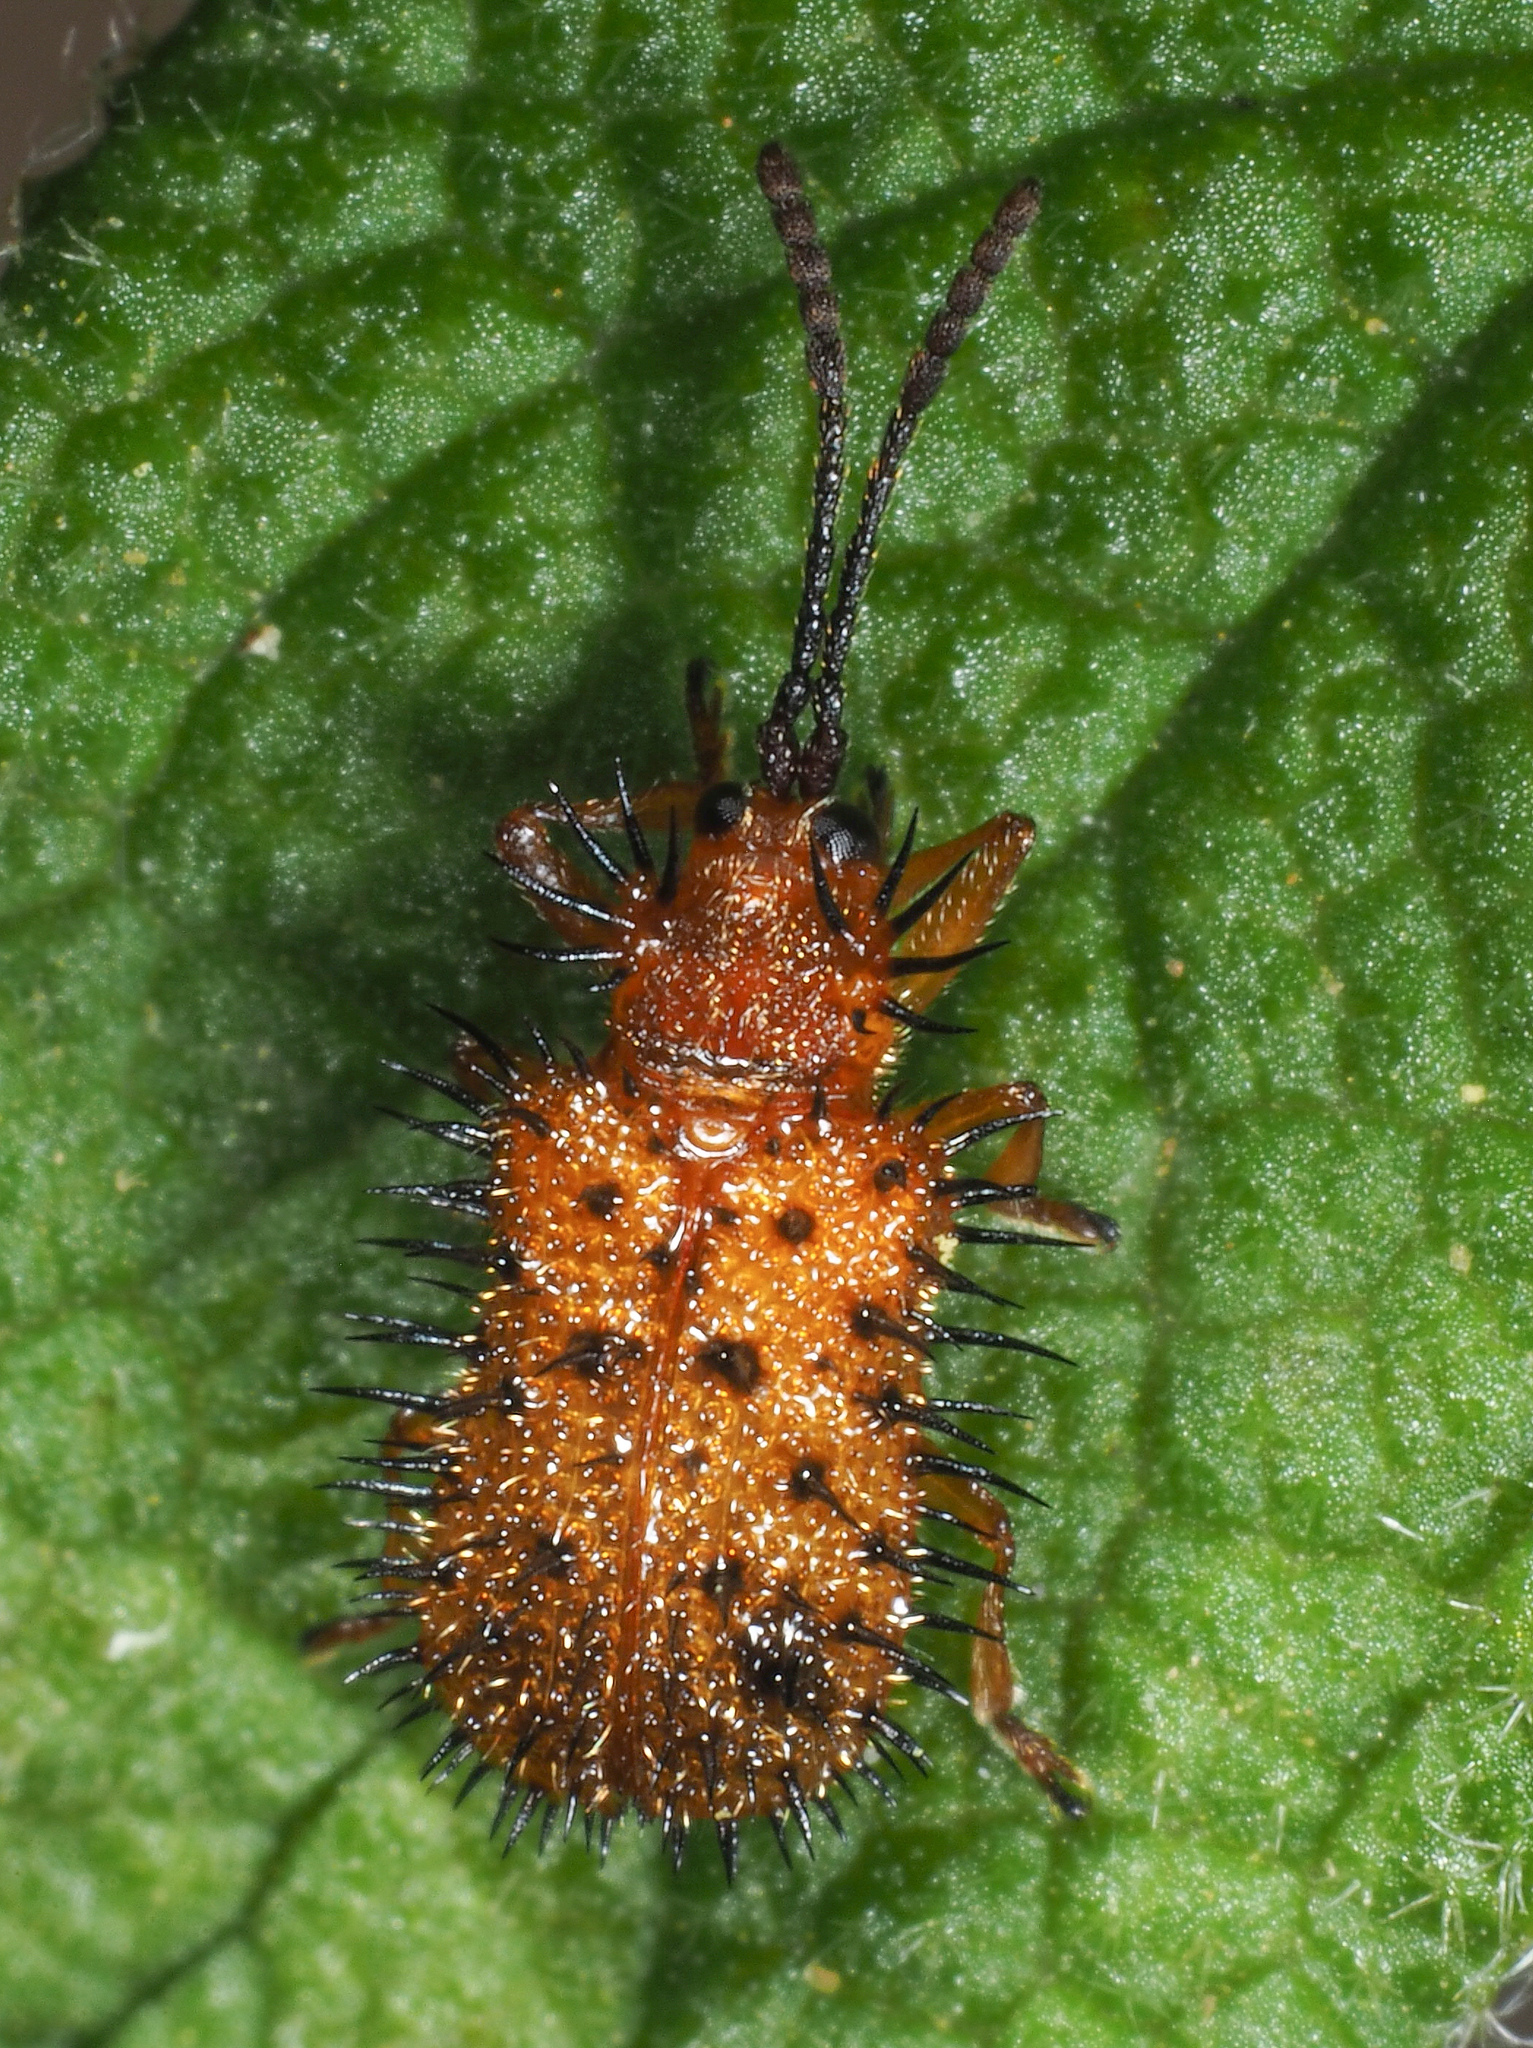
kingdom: Animalia
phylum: Arthropoda
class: Insecta
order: Coleoptera
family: Chrysomelidae
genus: Dicladispa
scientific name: Dicladispa testacea
